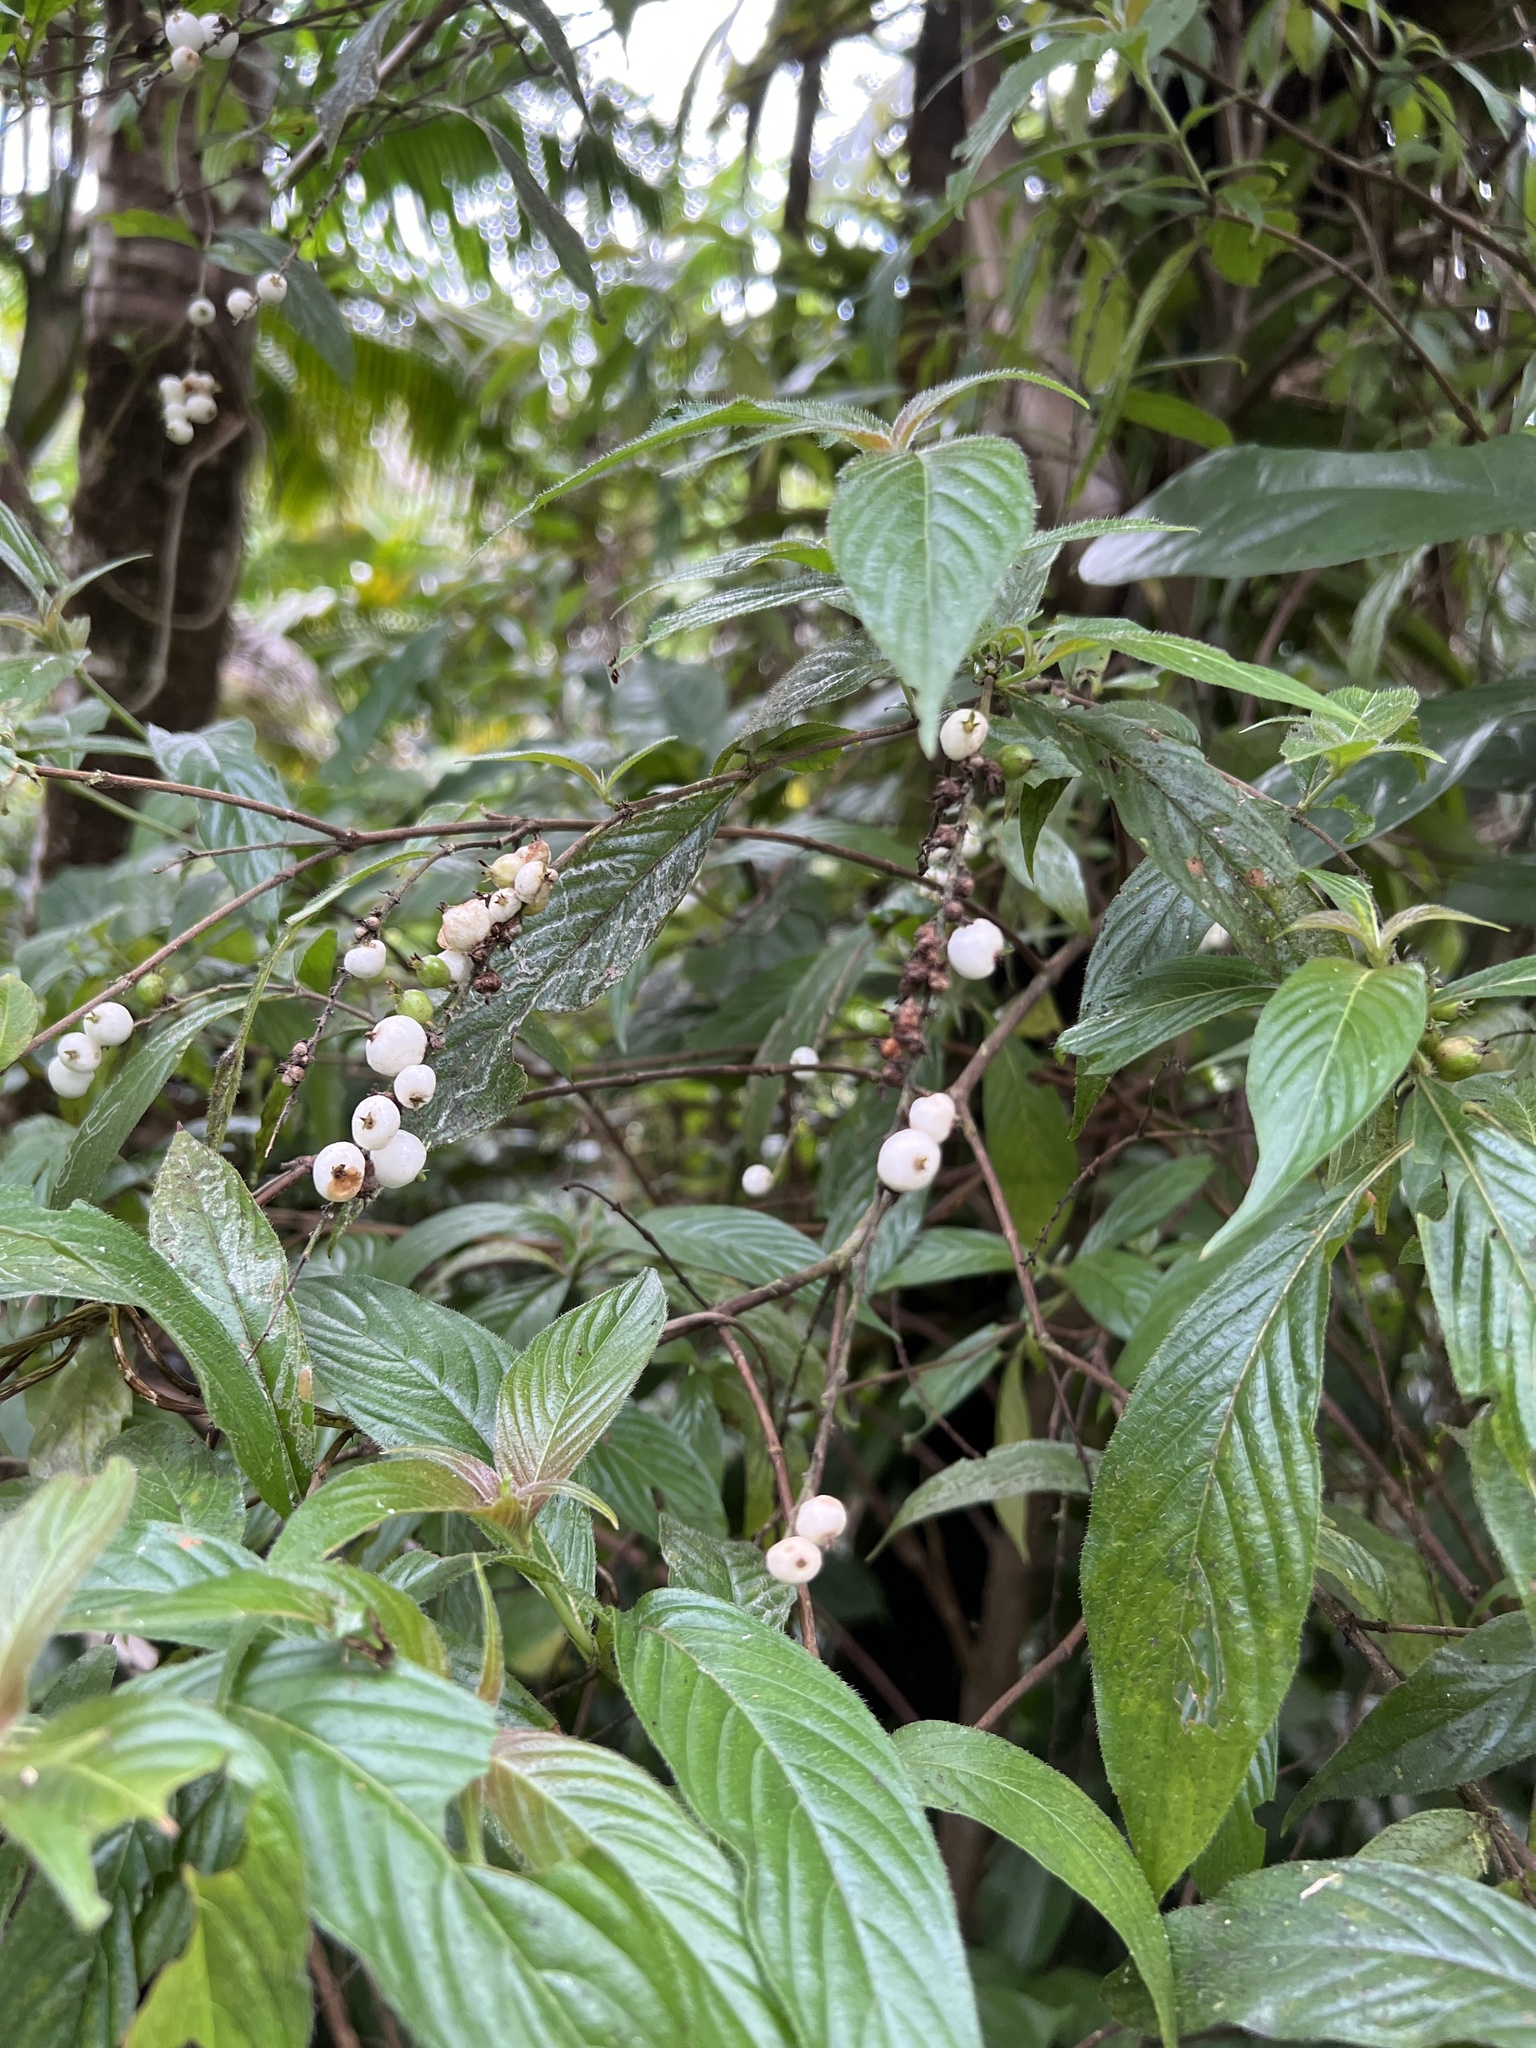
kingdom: Plantae
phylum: Tracheophyta
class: Magnoliopsida
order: Gentianales
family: Rubiaceae
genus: Gonzalagunia
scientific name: Gonzalagunia hirsuta
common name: Mata de mariposa
